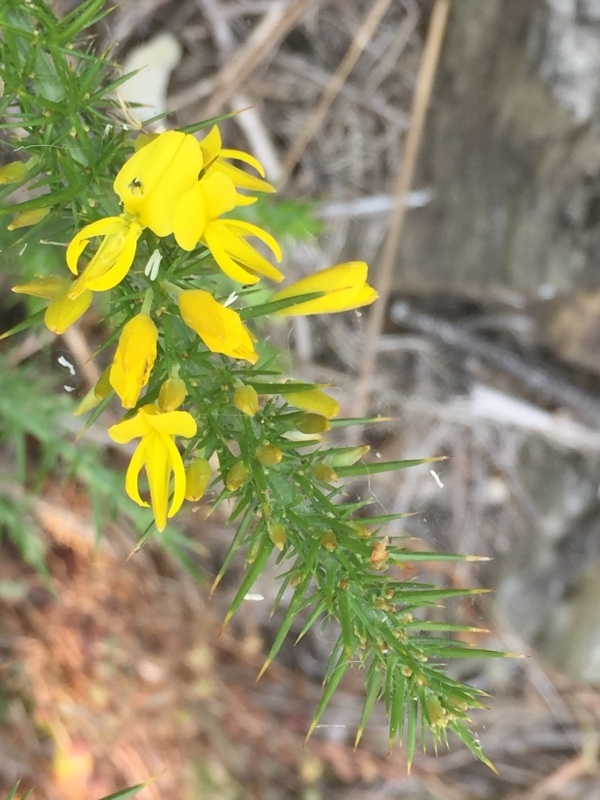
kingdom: Plantae
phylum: Tracheophyta
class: Magnoliopsida
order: Fabales
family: Fabaceae
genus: Ulex
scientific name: Ulex minor
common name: Dwarf gorse
